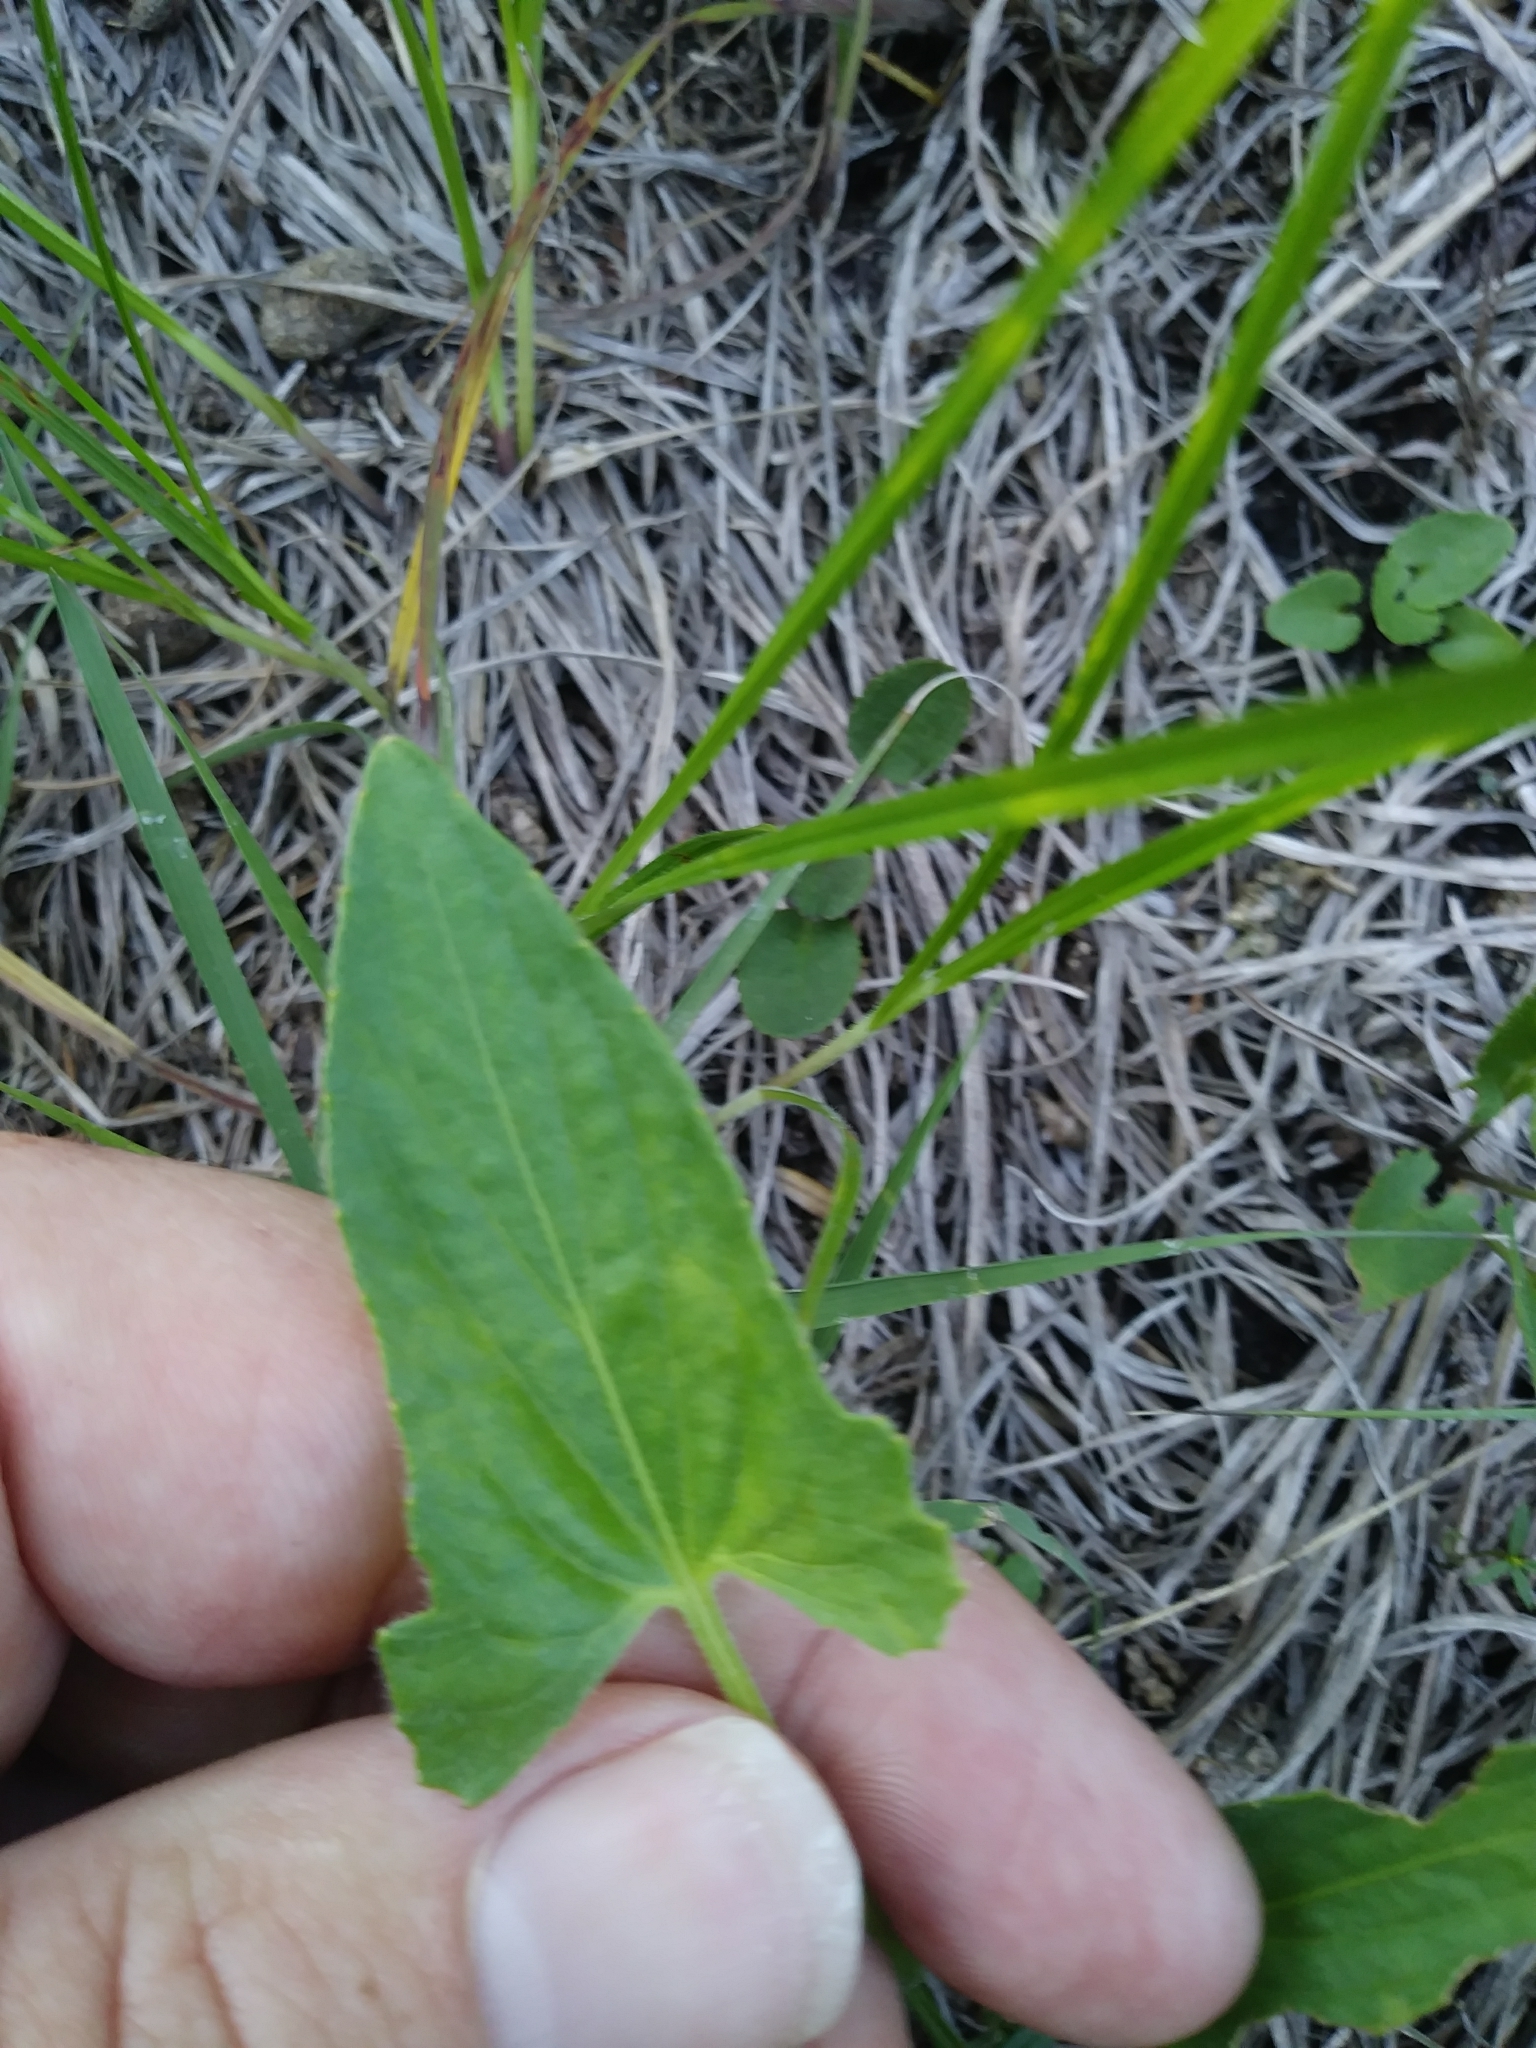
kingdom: Plantae
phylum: Tracheophyta
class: Magnoliopsida
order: Malpighiales
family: Violaceae
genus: Viola
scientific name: Viola sagittata
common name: Arrowhead violet
